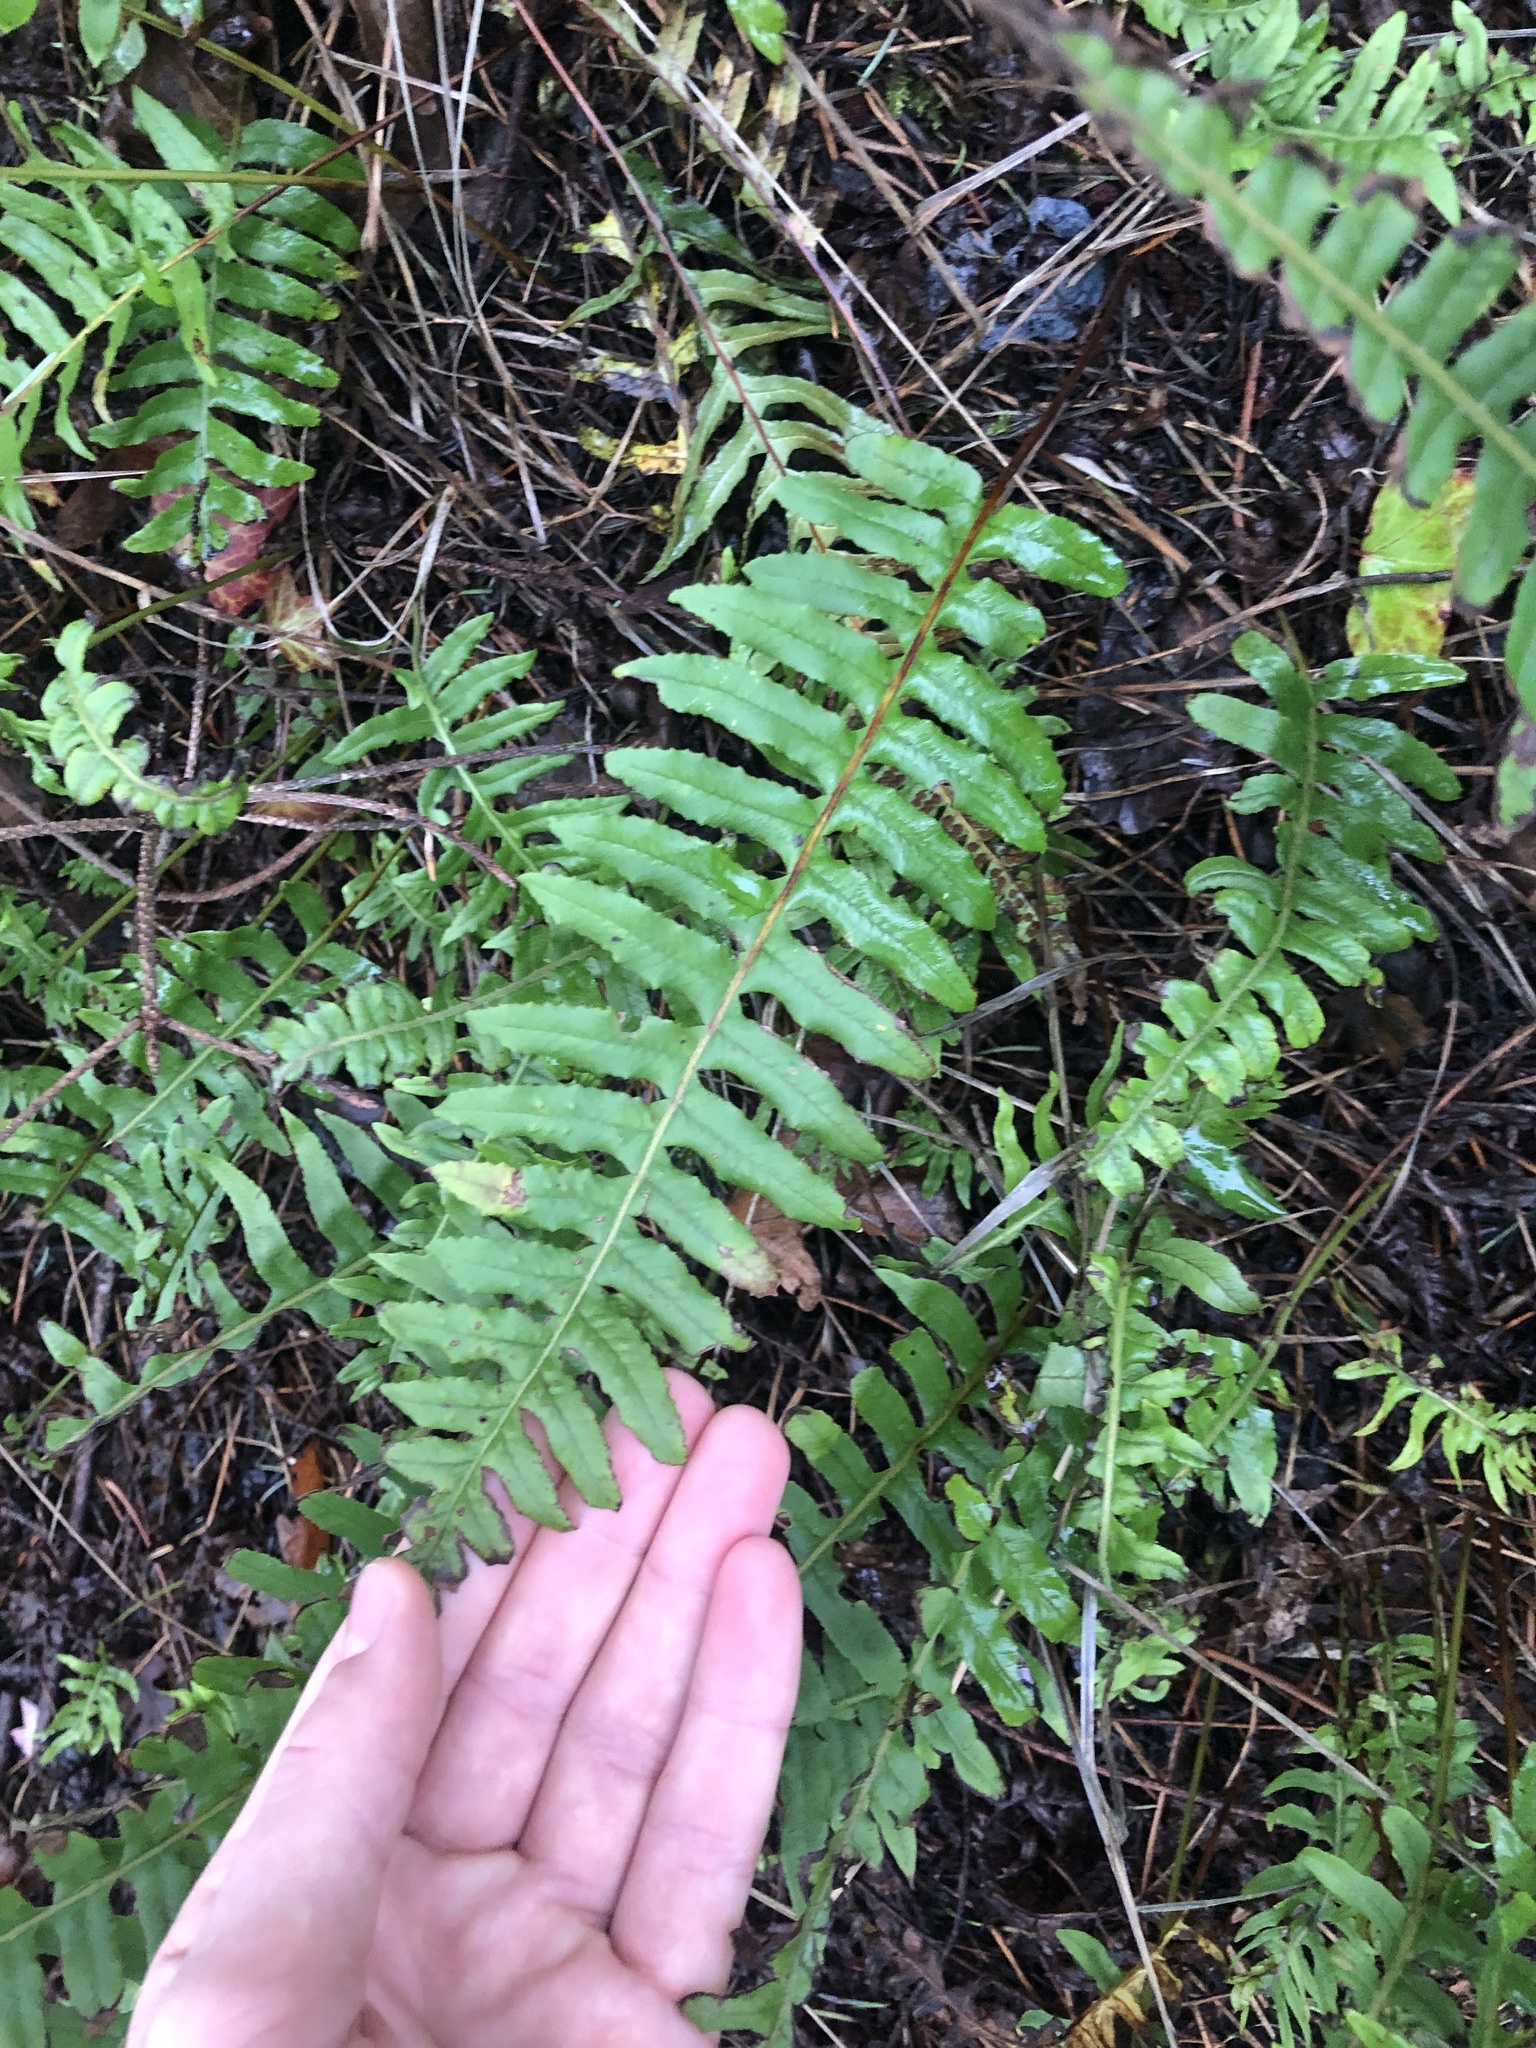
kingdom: Plantae
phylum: Tracheophyta
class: Polypodiopsida
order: Polypodiales
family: Polypodiaceae
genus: Polypodium
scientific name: Polypodium glycyrrhiza
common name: Licorice fern
